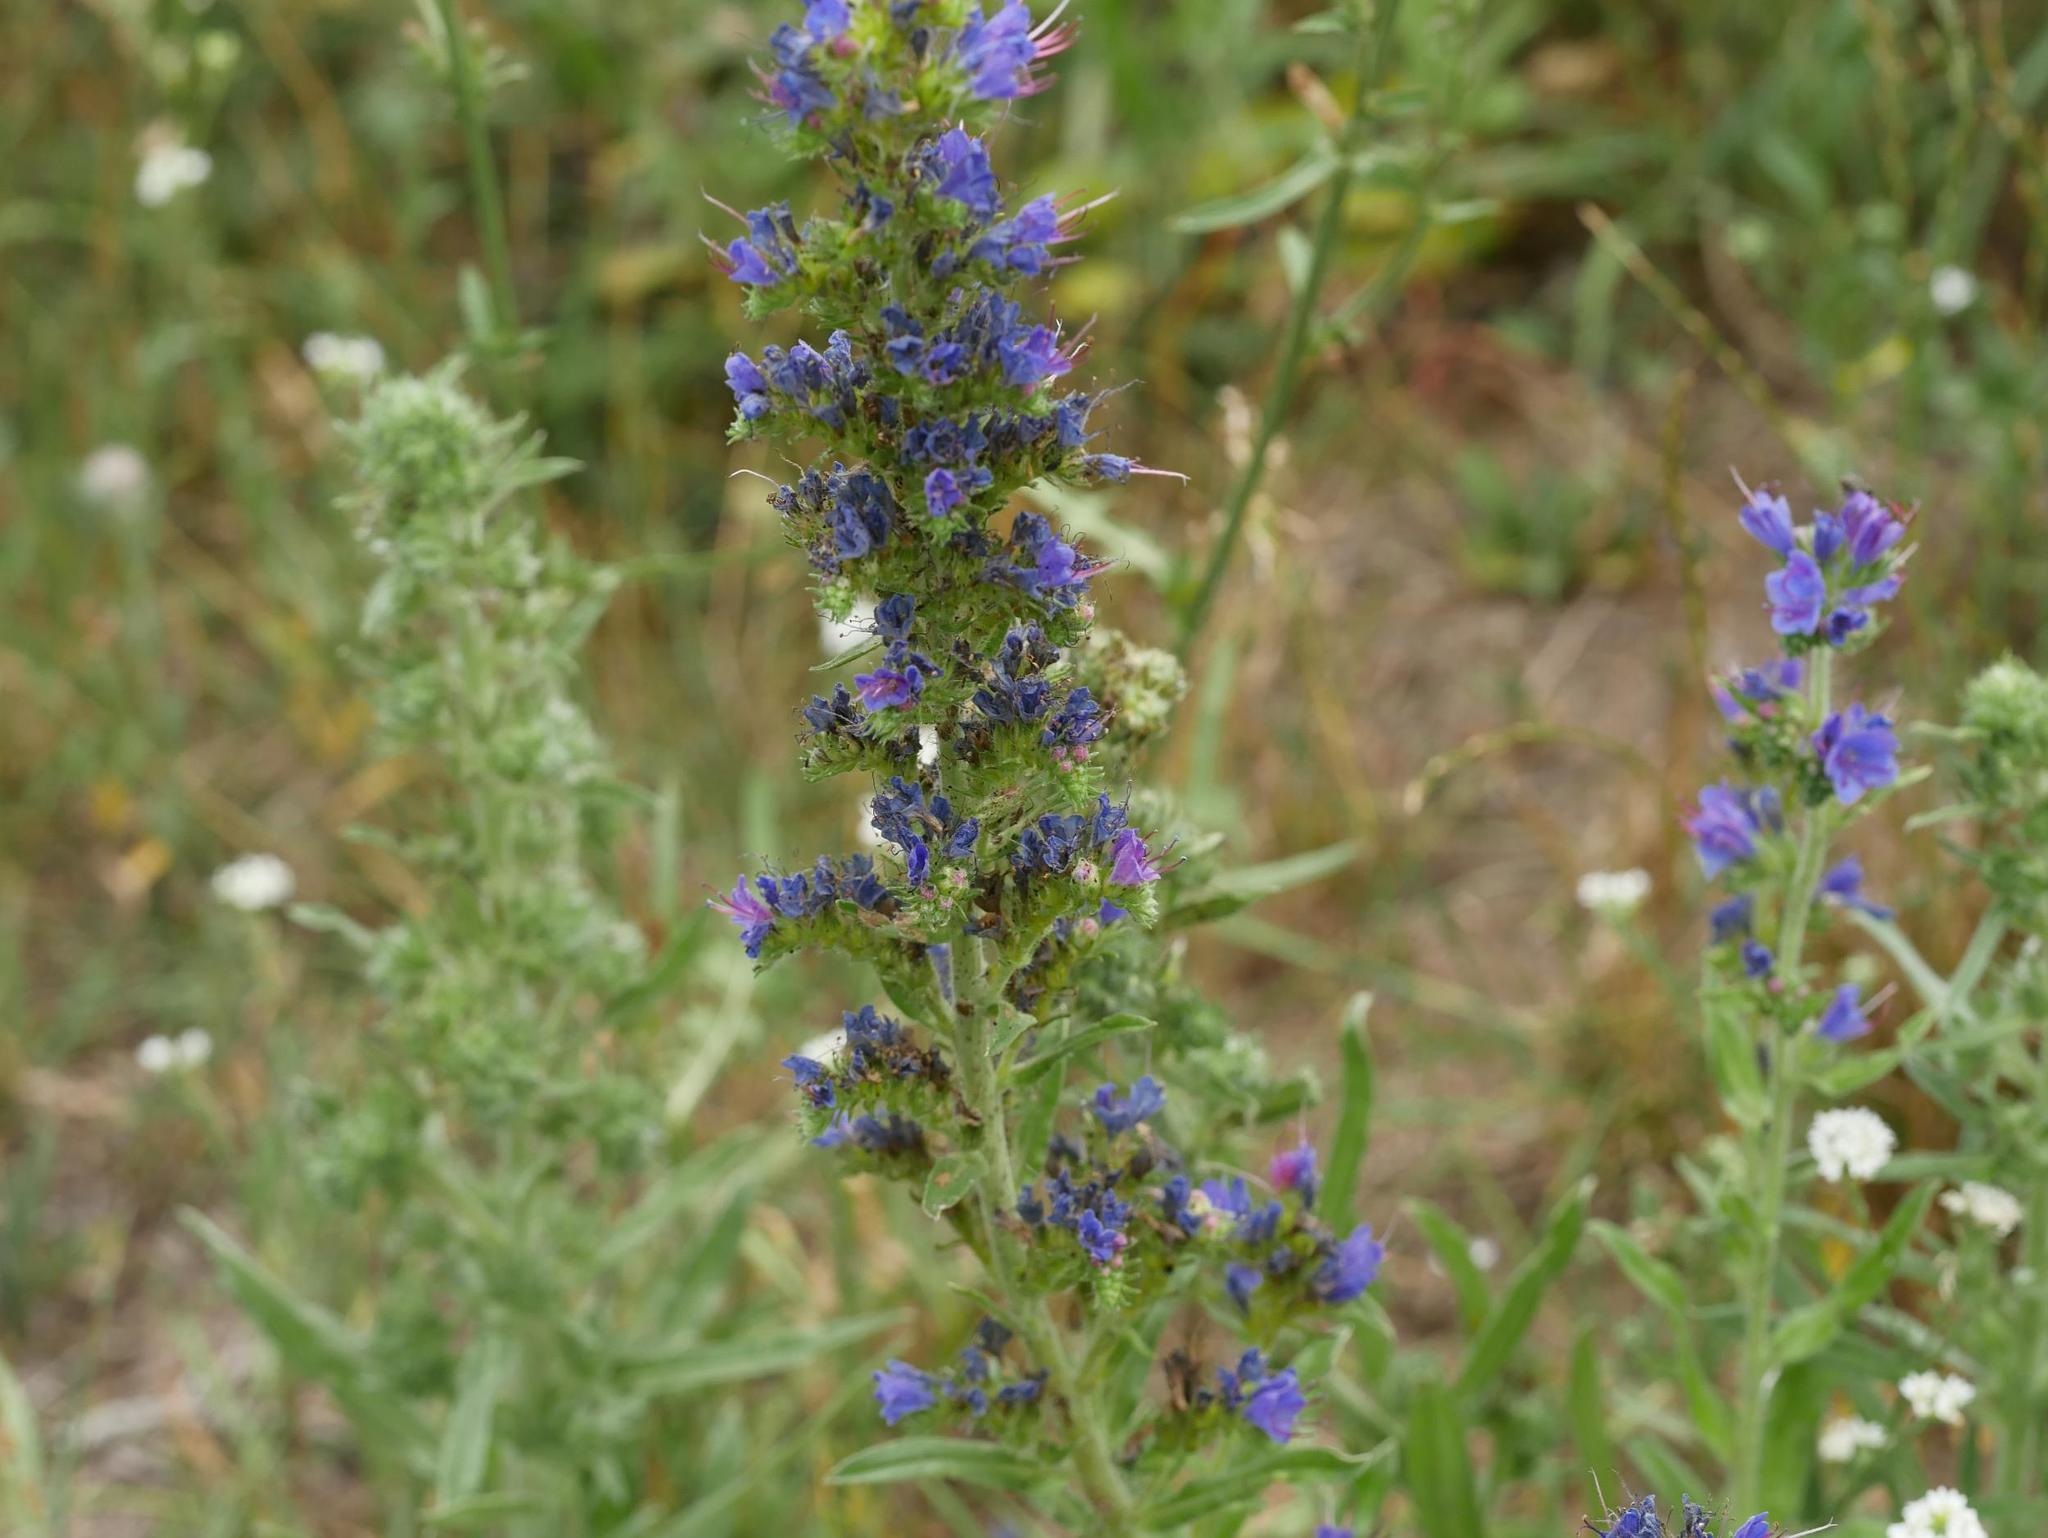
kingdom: Plantae
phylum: Tracheophyta
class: Magnoliopsida
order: Boraginales
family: Boraginaceae
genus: Echium
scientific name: Echium vulgare
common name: Common viper's bugloss
